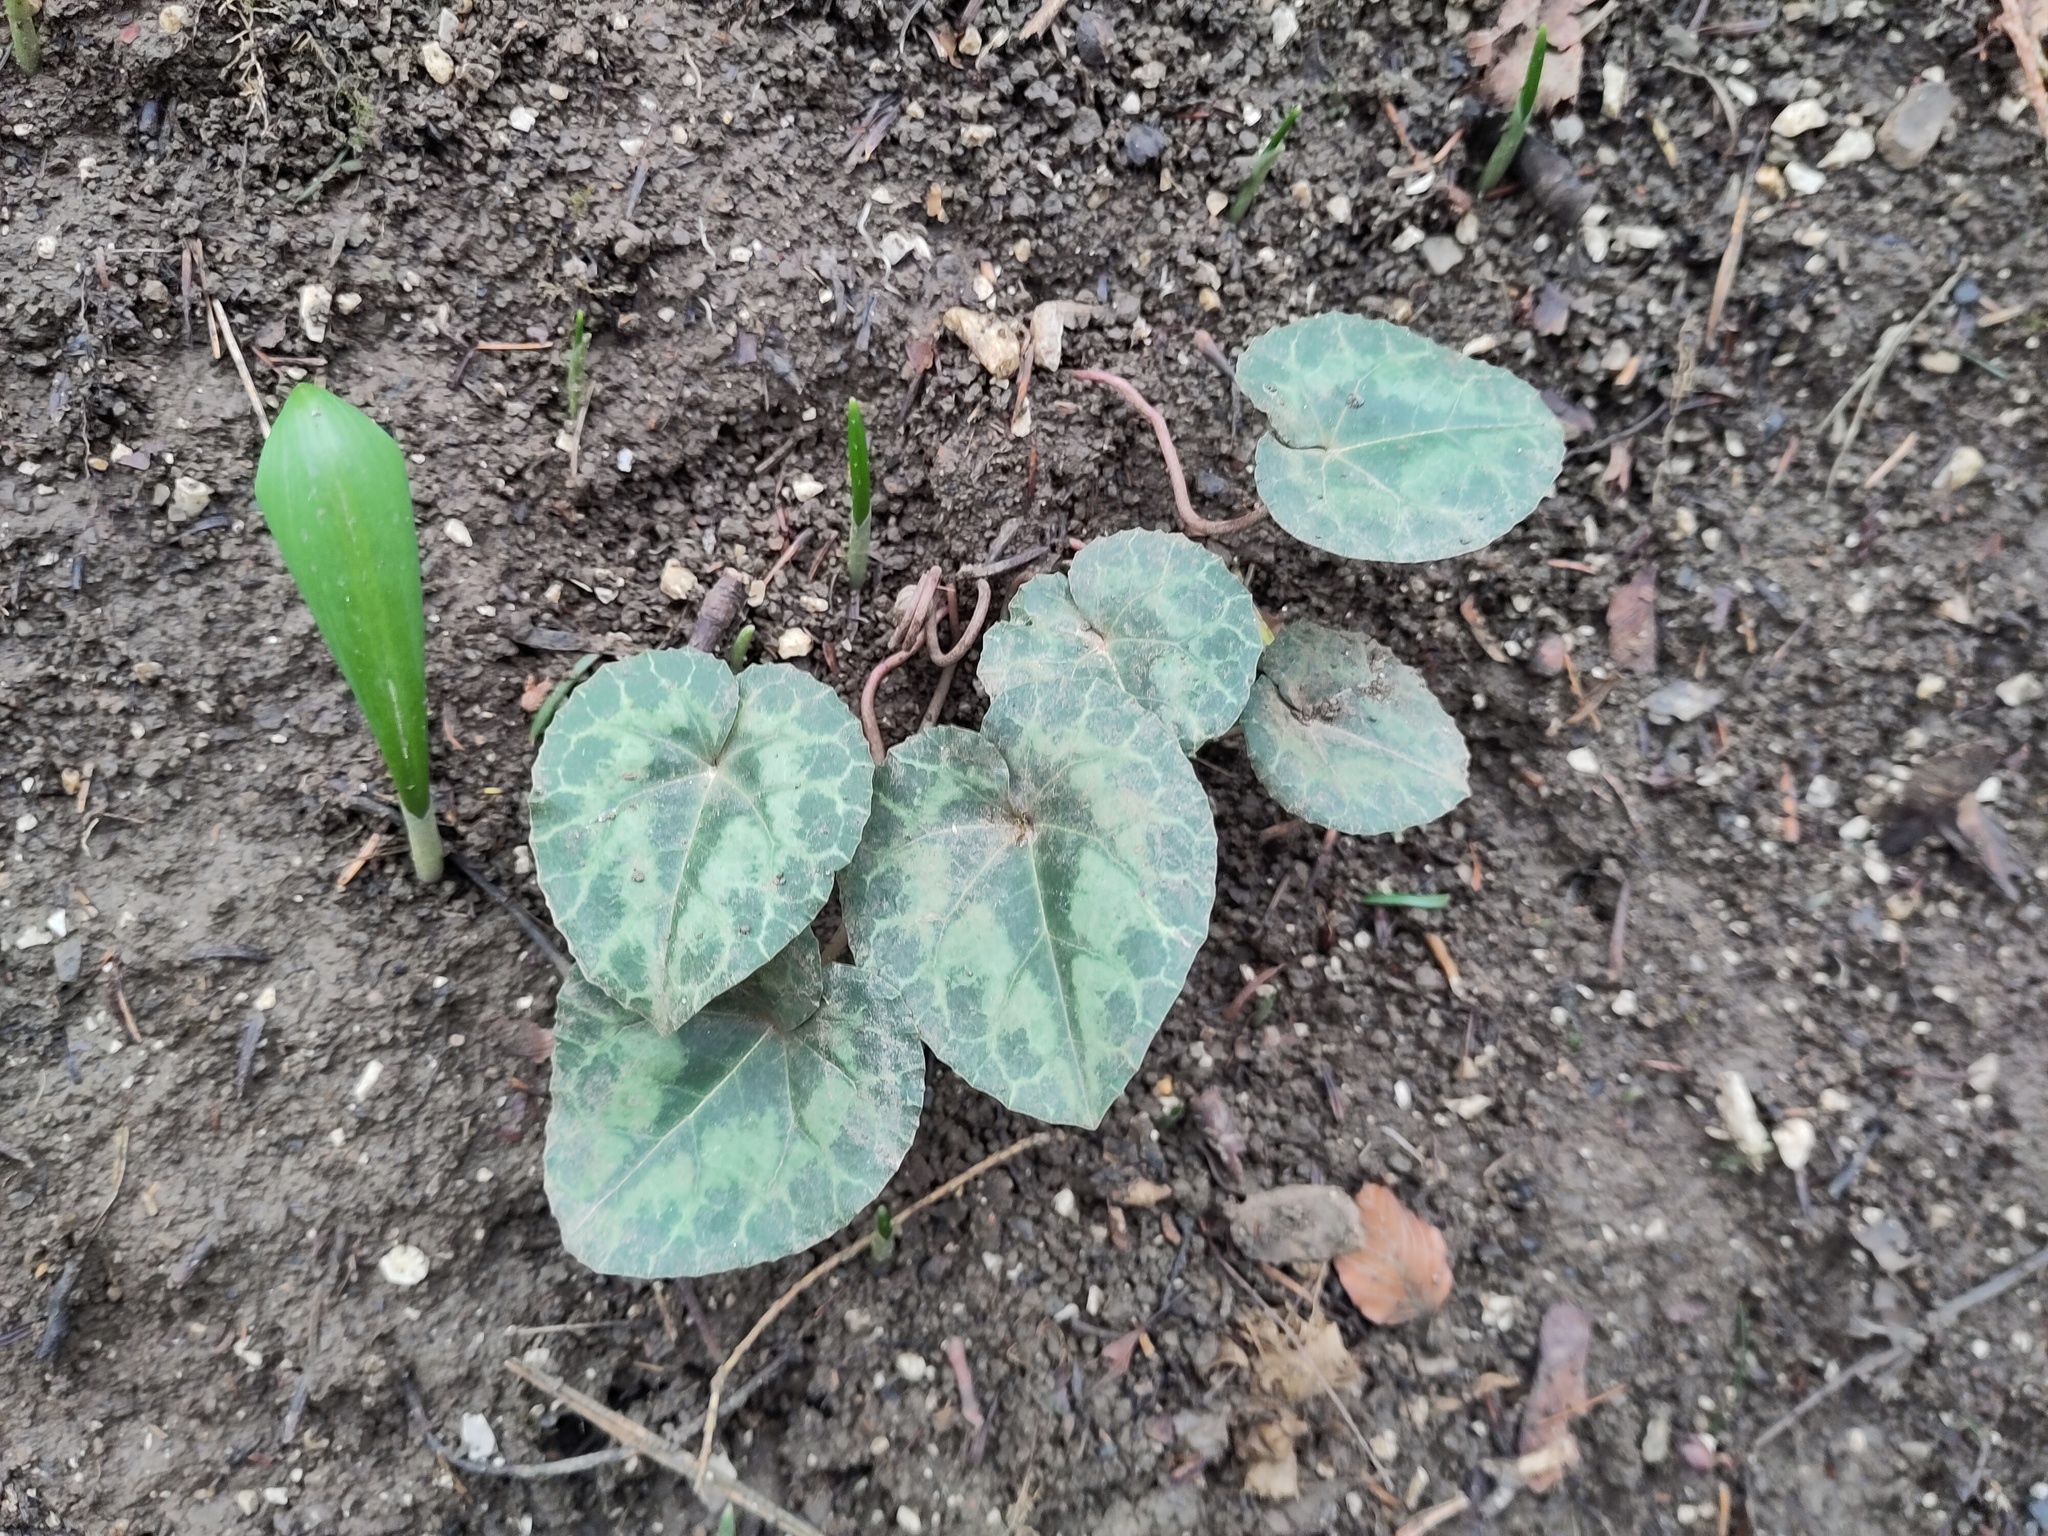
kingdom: Plantae
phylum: Tracheophyta
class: Magnoliopsida
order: Ericales
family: Primulaceae
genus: Cyclamen
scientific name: Cyclamen purpurascens
